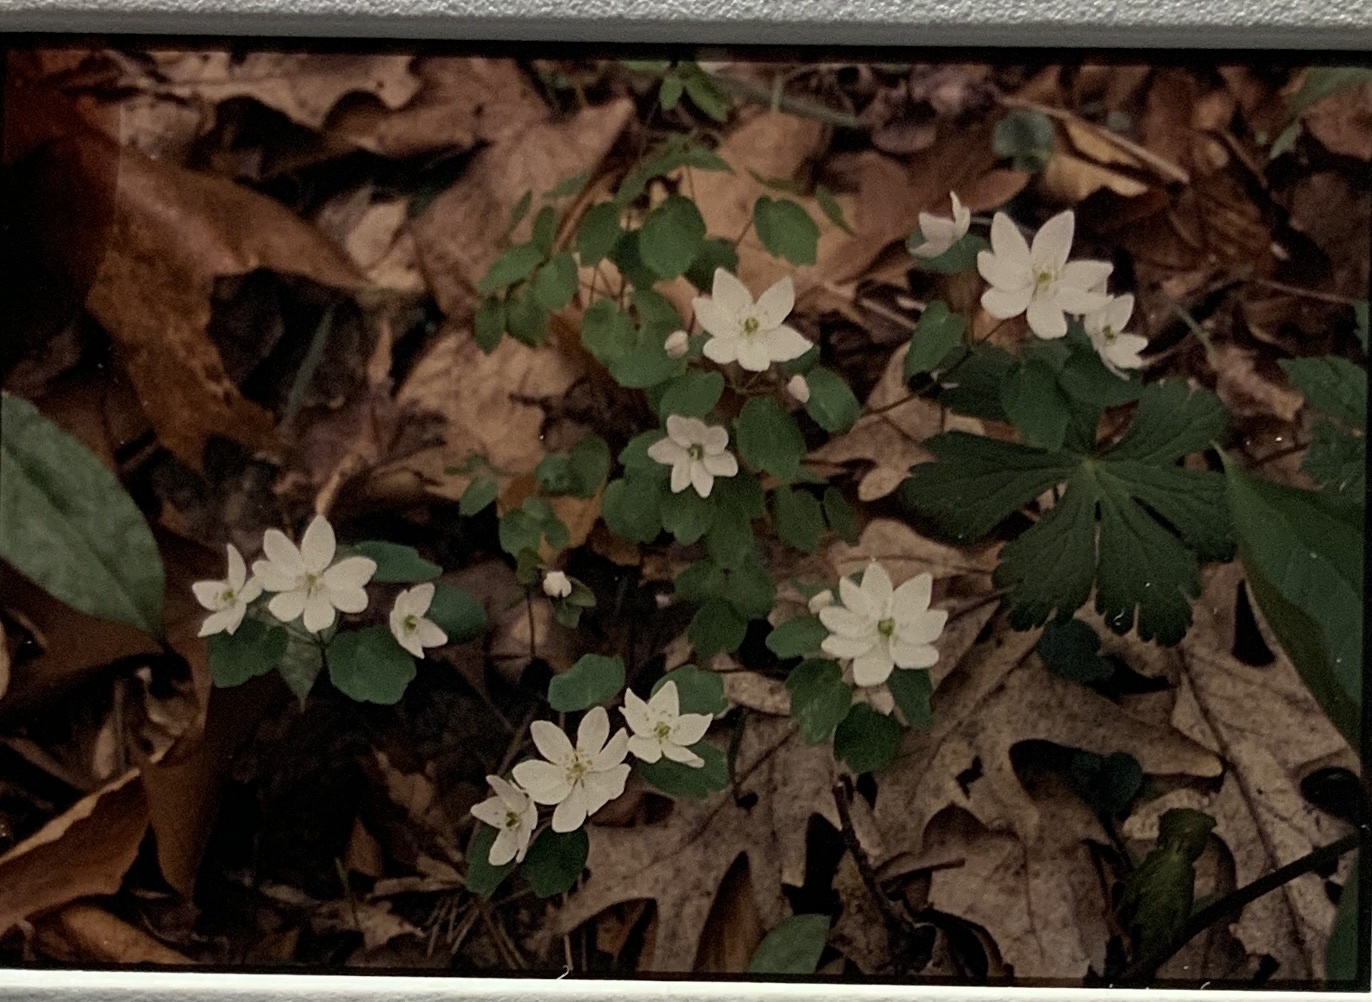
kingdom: Plantae
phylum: Tracheophyta
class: Magnoliopsida
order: Ranunculales
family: Ranunculaceae
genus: Thalictrum
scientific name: Thalictrum thalictroides
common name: Rue-anemone
